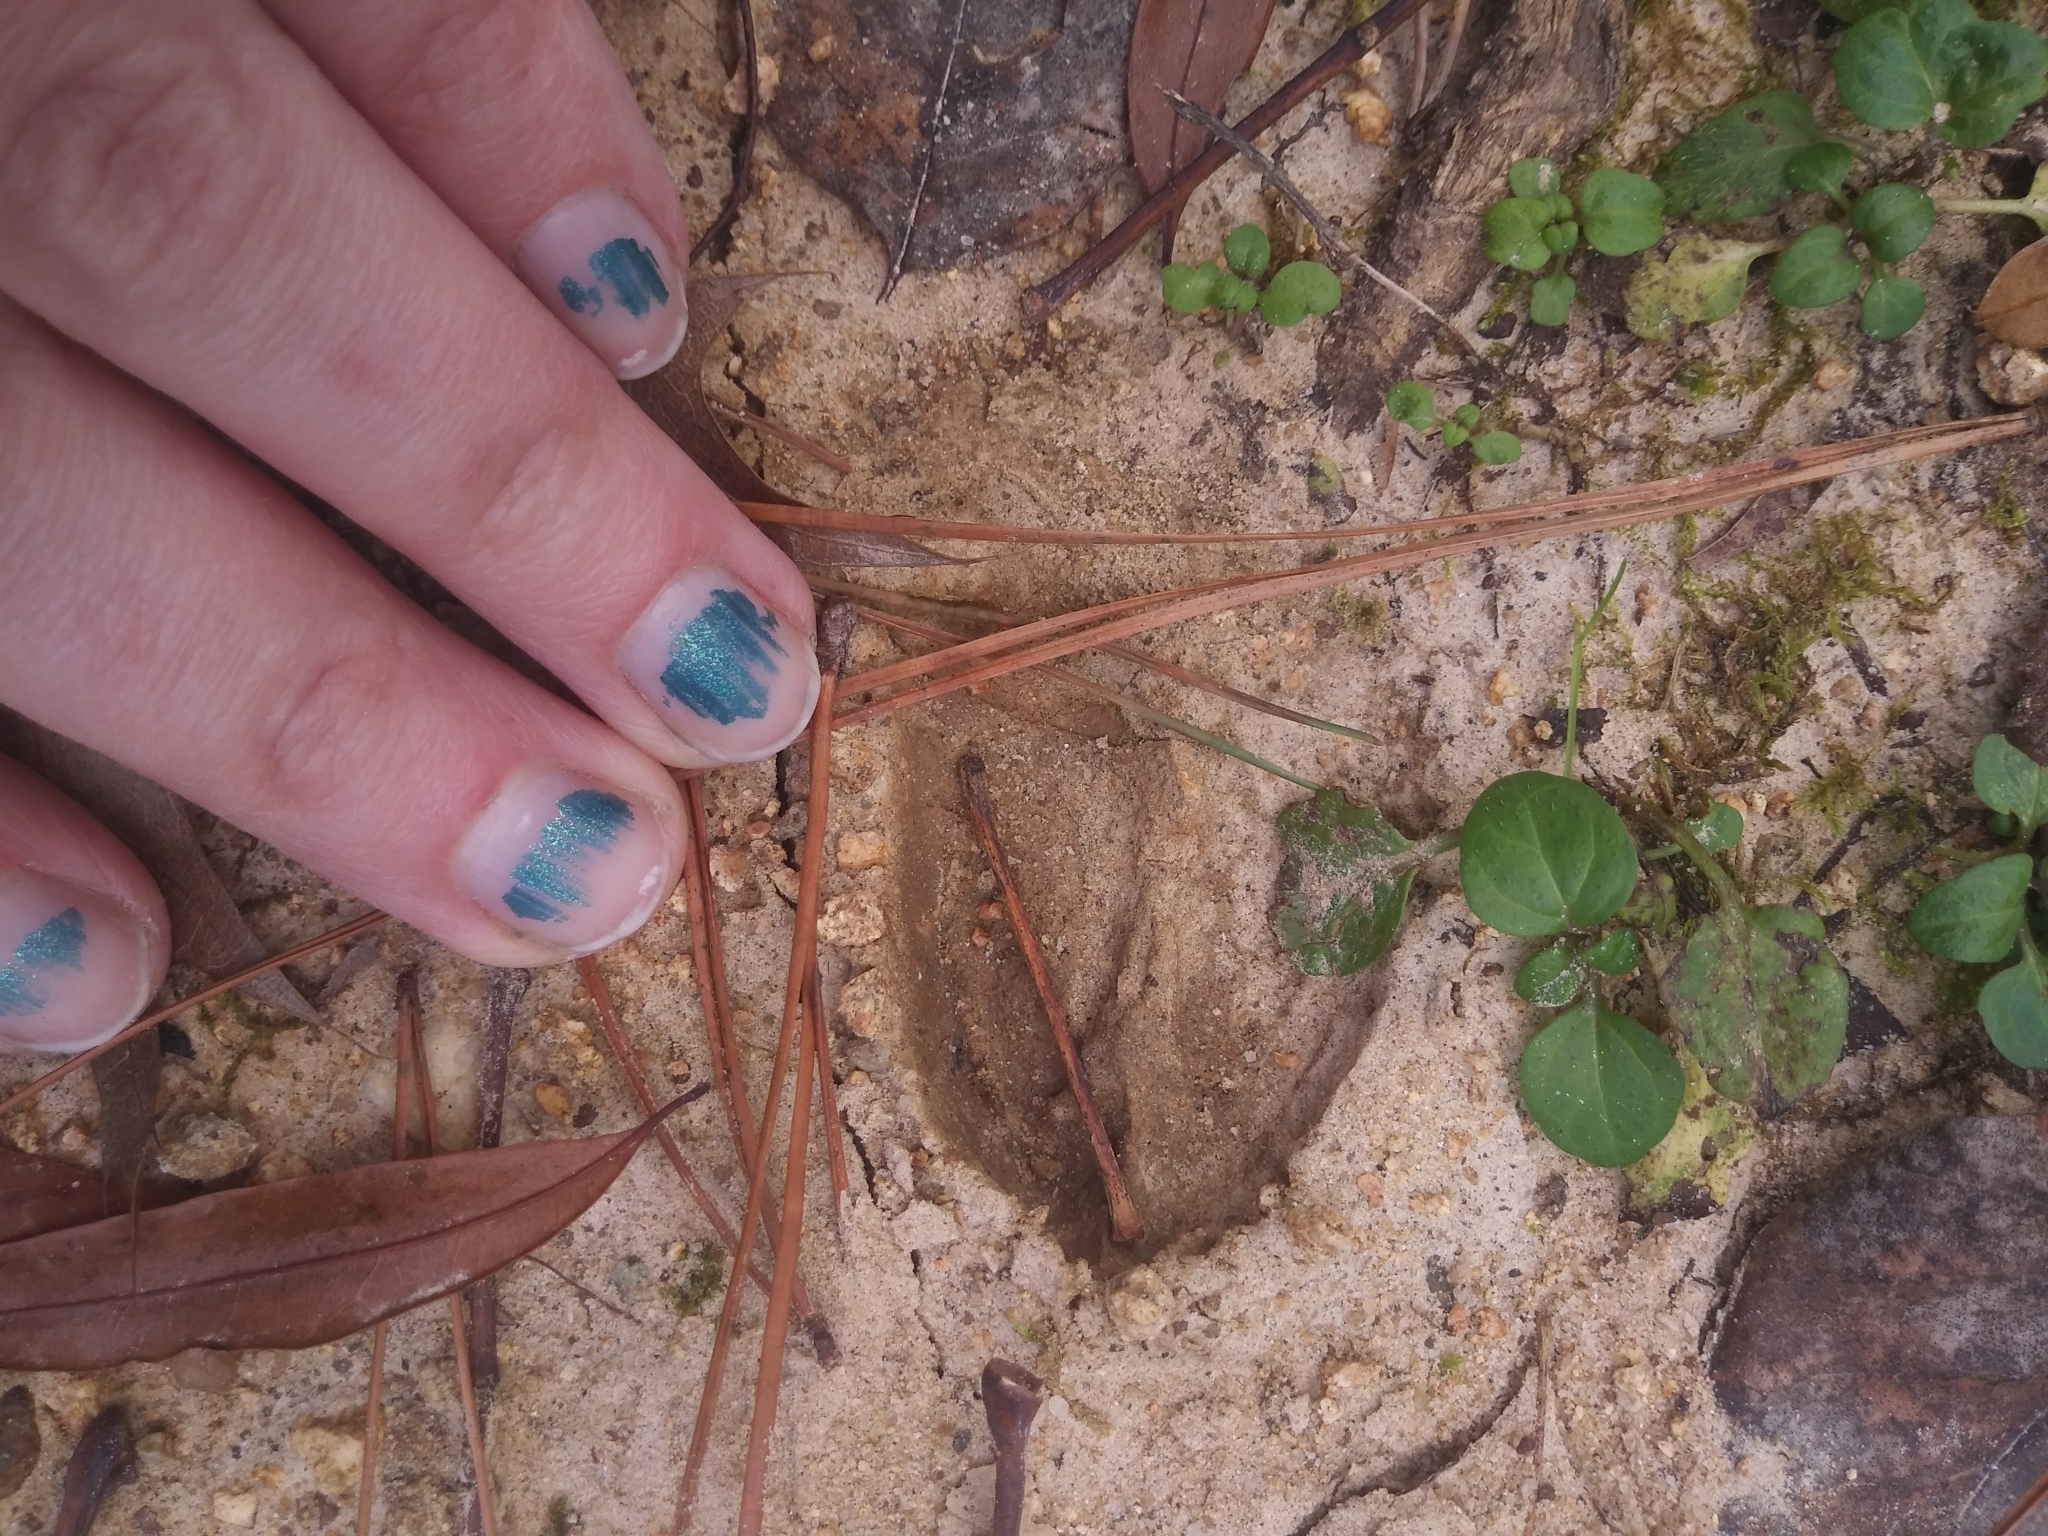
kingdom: Animalia
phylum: Chordata
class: Mammalia
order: Artiodactyla
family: Cervidae
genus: Odocoileus
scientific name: Odocoileus virginianus
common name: White-tailed deer
